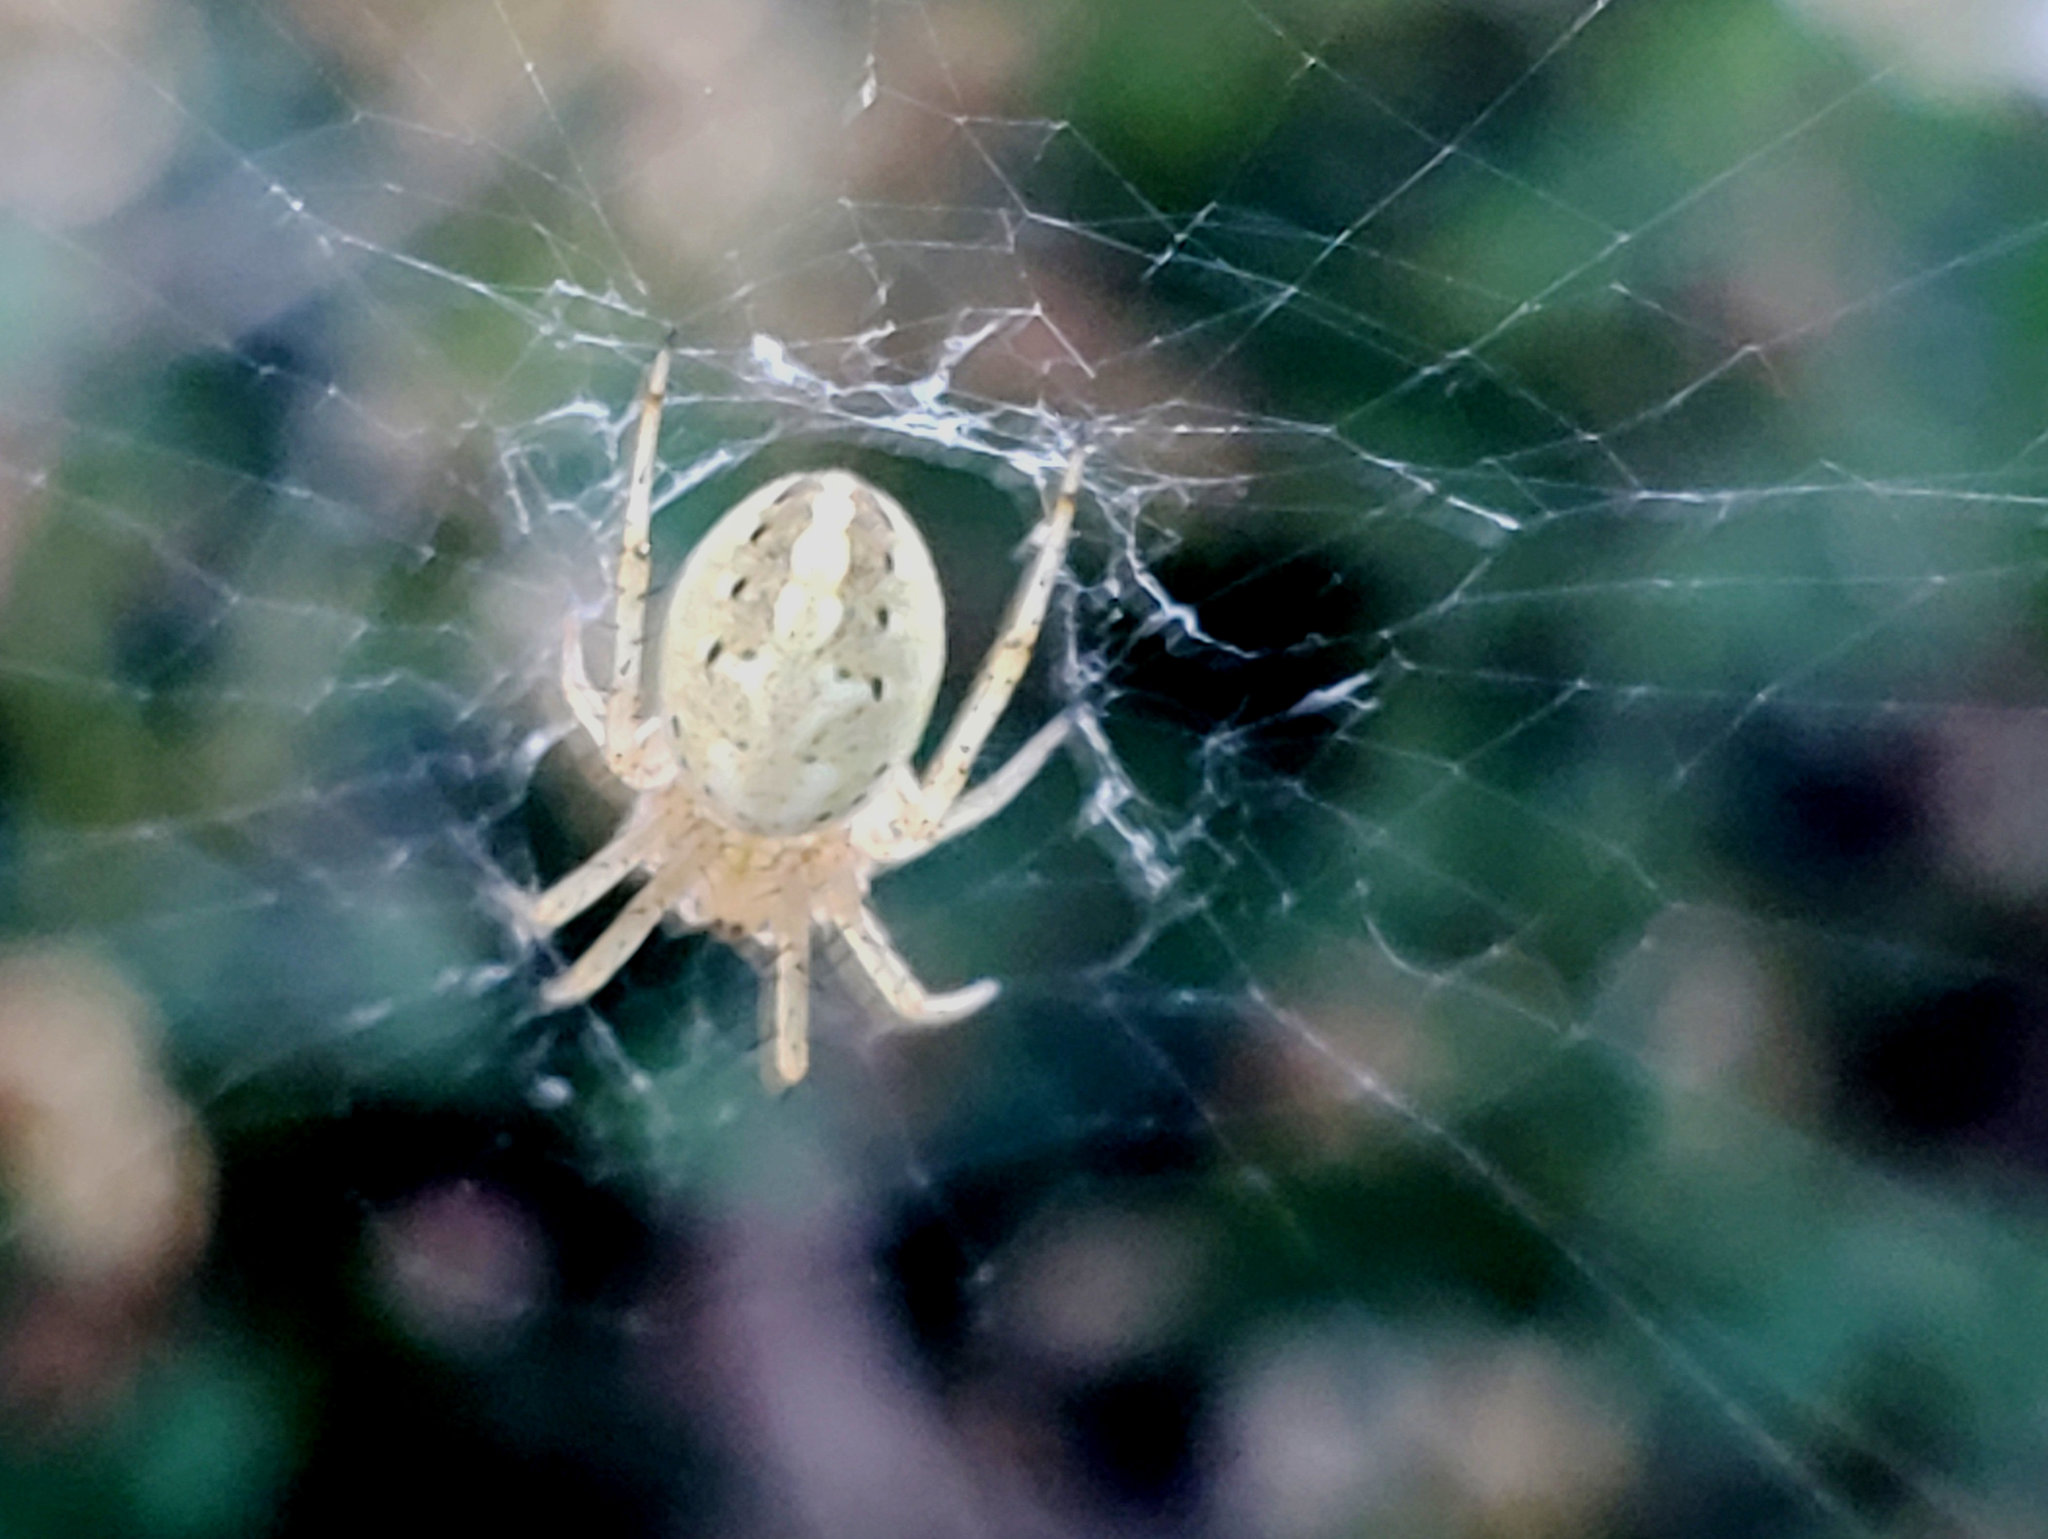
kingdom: Animalia
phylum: Arthropoda
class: Arachnida
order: Araneae
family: Araneidae
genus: Neoscona
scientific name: Neoscona oaxacensis
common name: Orb weavers
